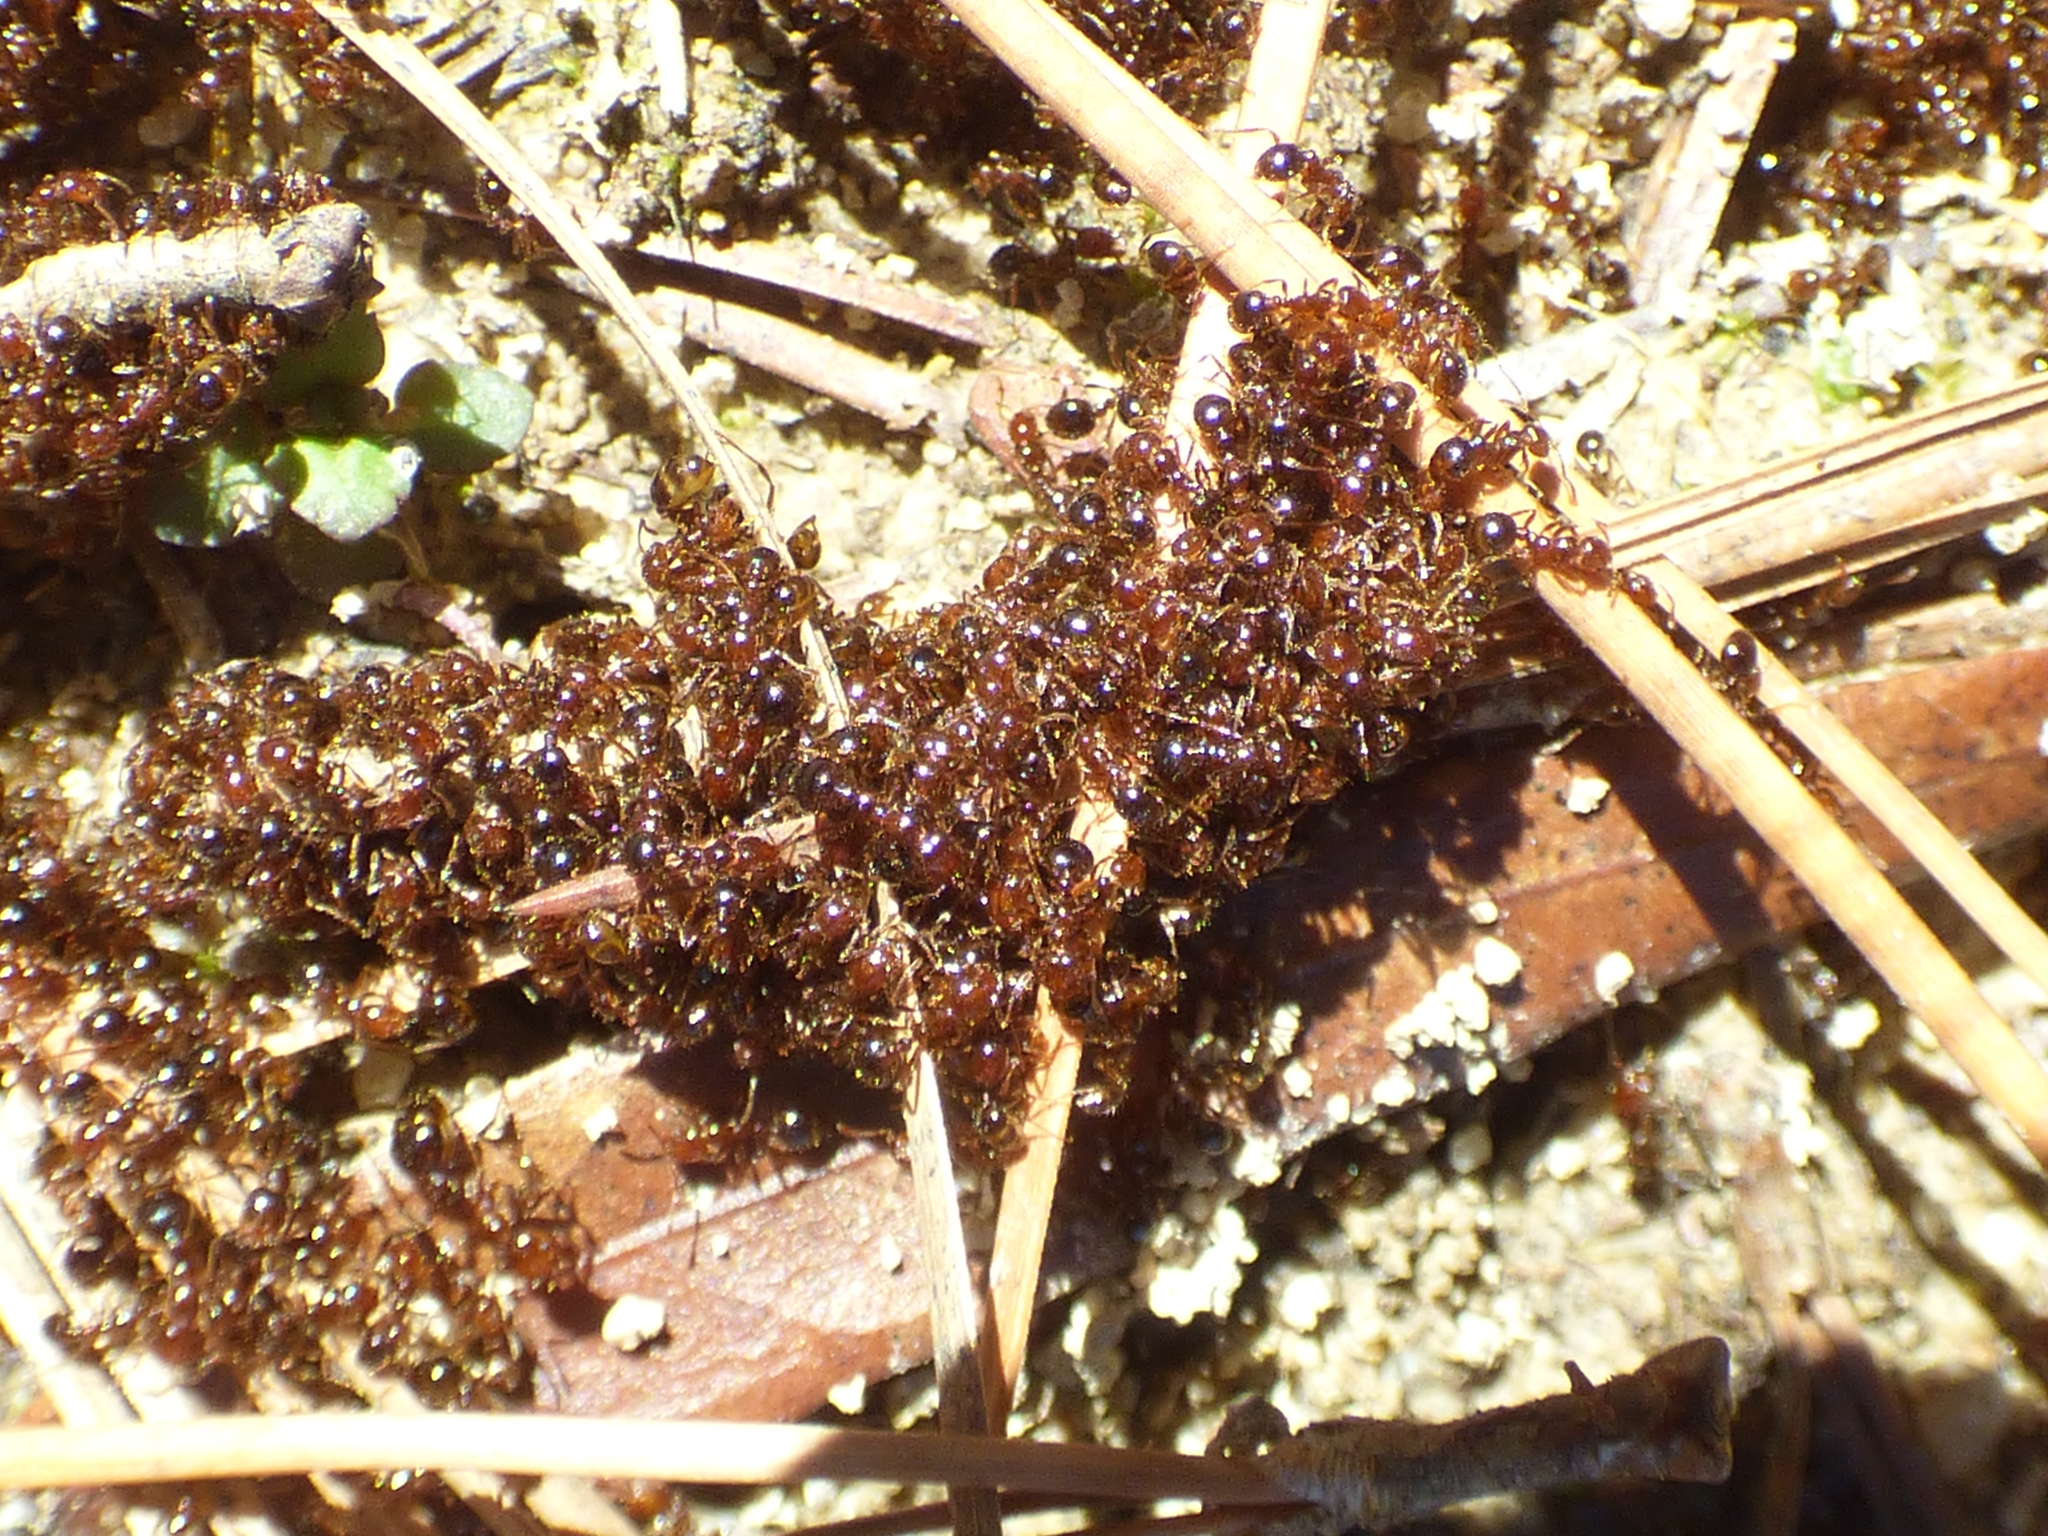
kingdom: Animalia
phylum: Arthropoda
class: Insecta
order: Hymenoptera
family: Formicidae
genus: Solenopsis
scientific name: Solenopsis invicta
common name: Red imported fire ant
